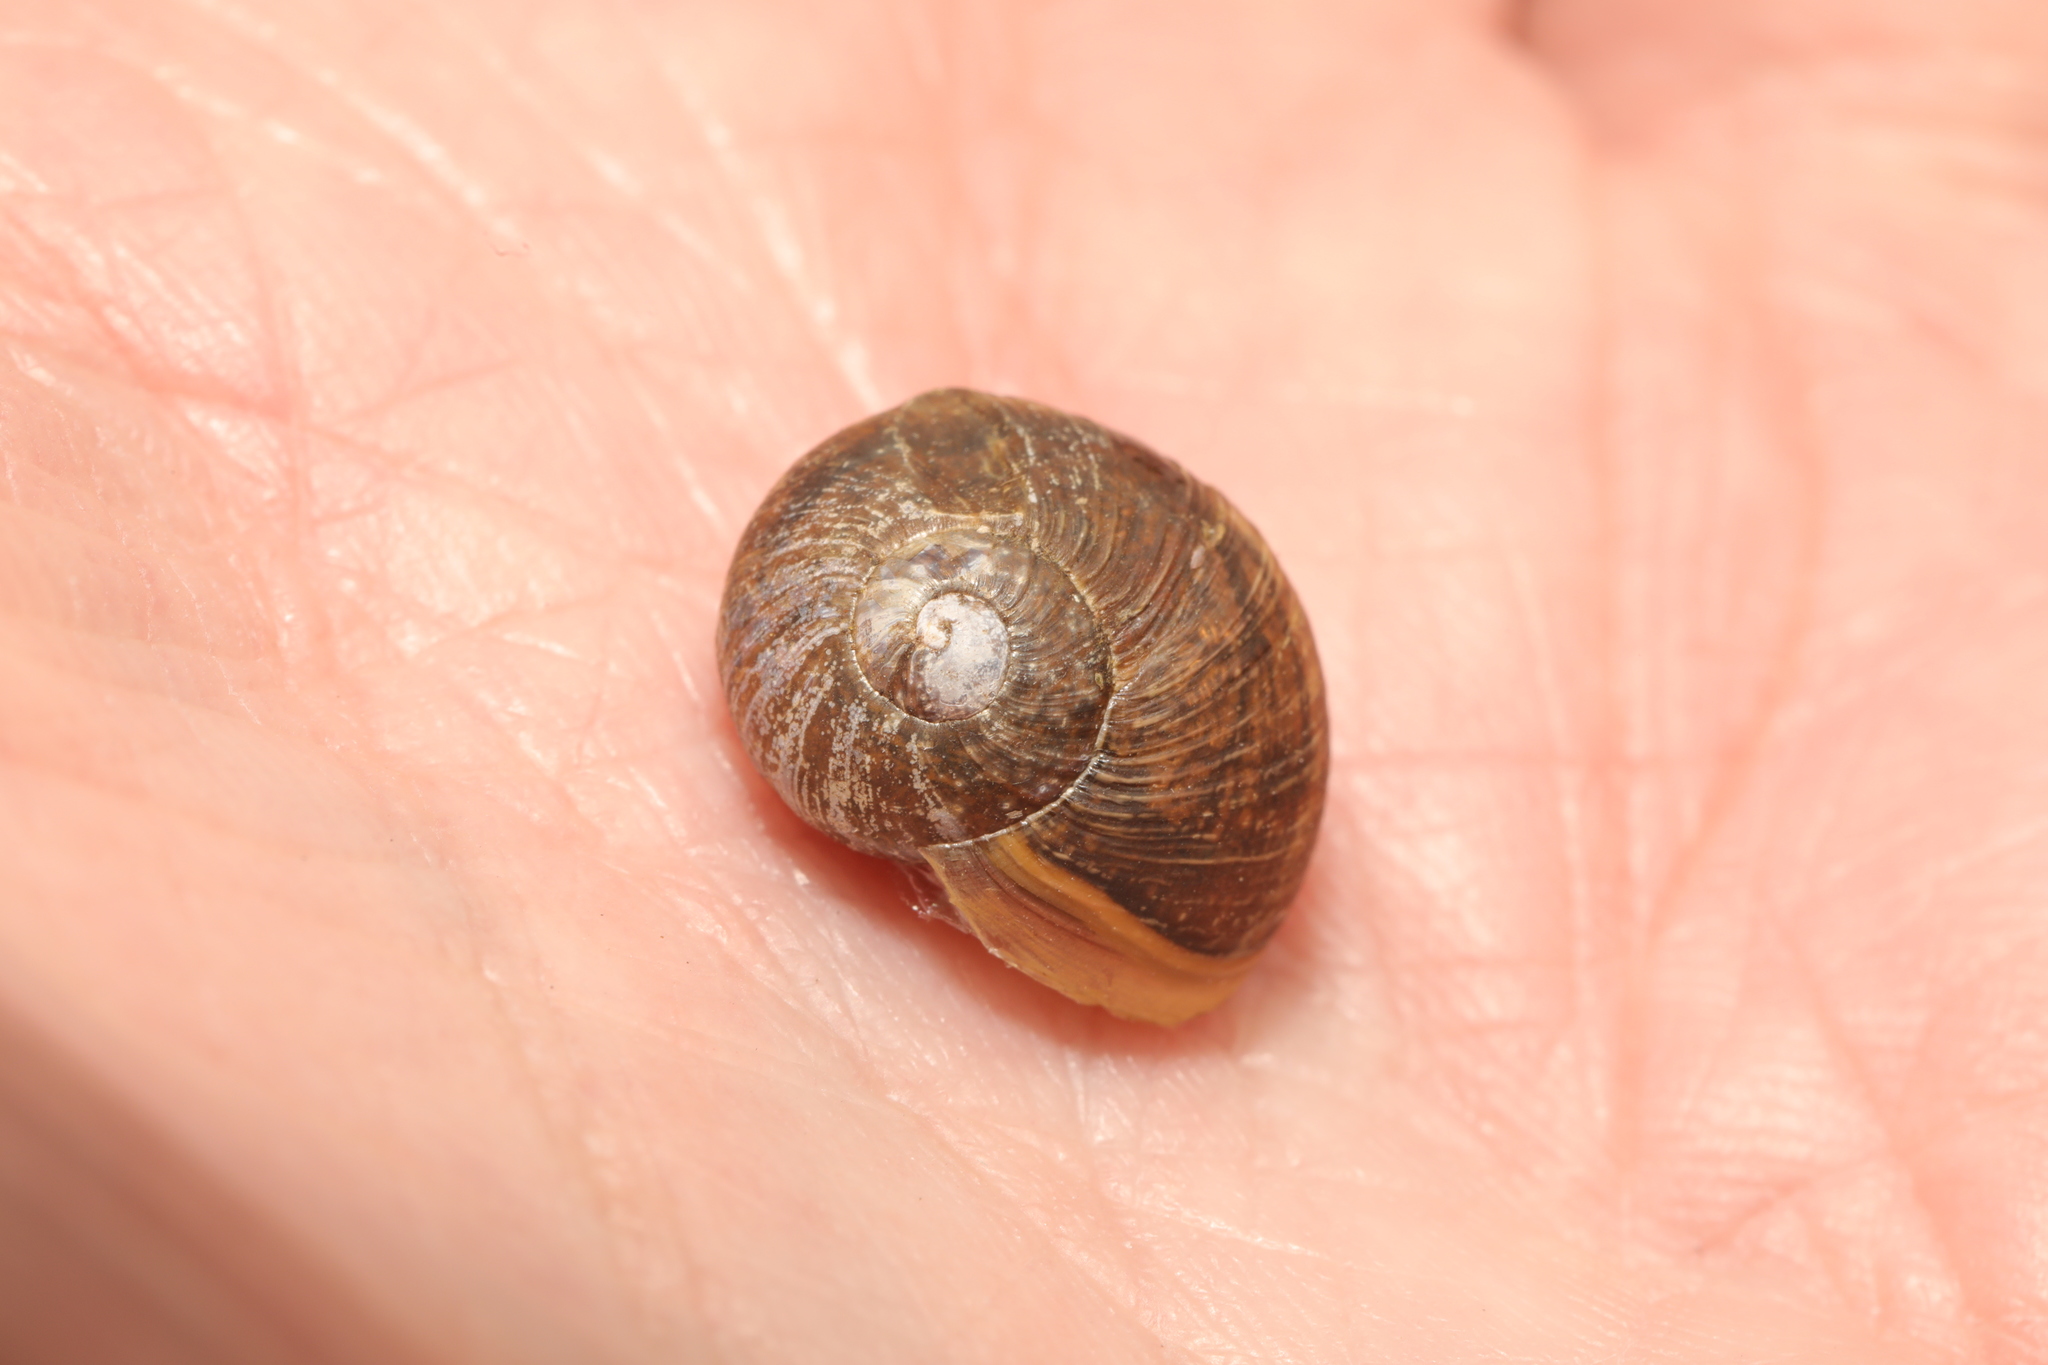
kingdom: Animalia
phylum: Mollusca
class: Gastropoda
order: Stylommatophora
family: Helicidae
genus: Cornu
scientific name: Cornu aspersum
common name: Brown garden snail
